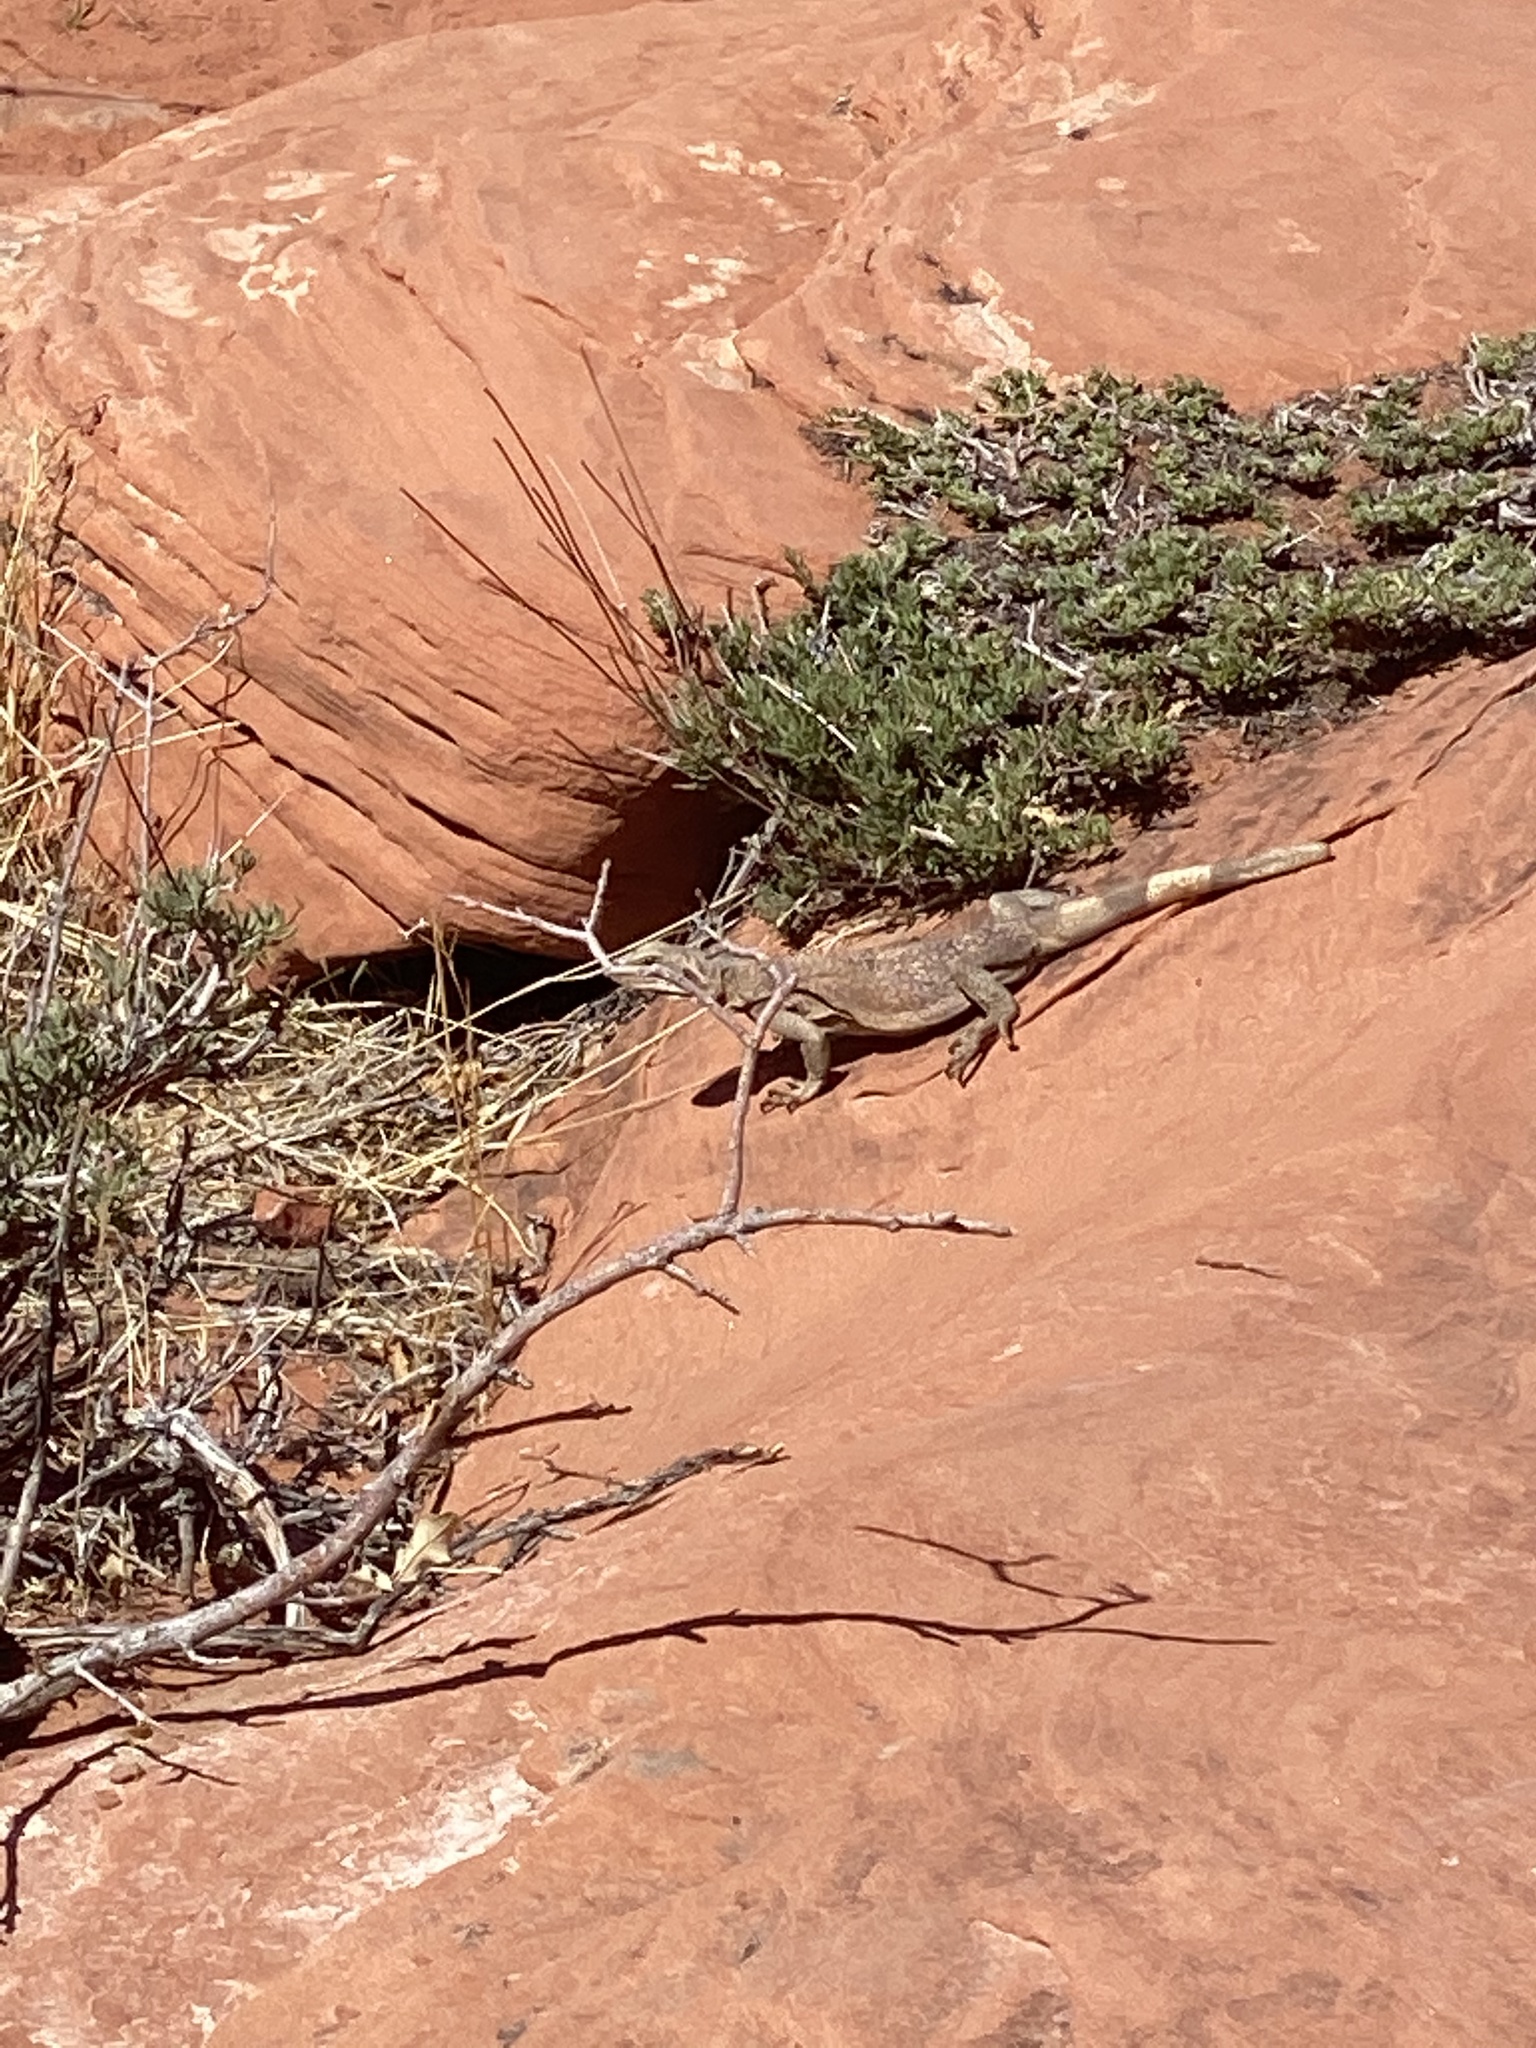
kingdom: Animalia
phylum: Chordata
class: Squamata
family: Iguanidae
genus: Sauromalus
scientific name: Sauromalus ater
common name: Northern chuckwalla
